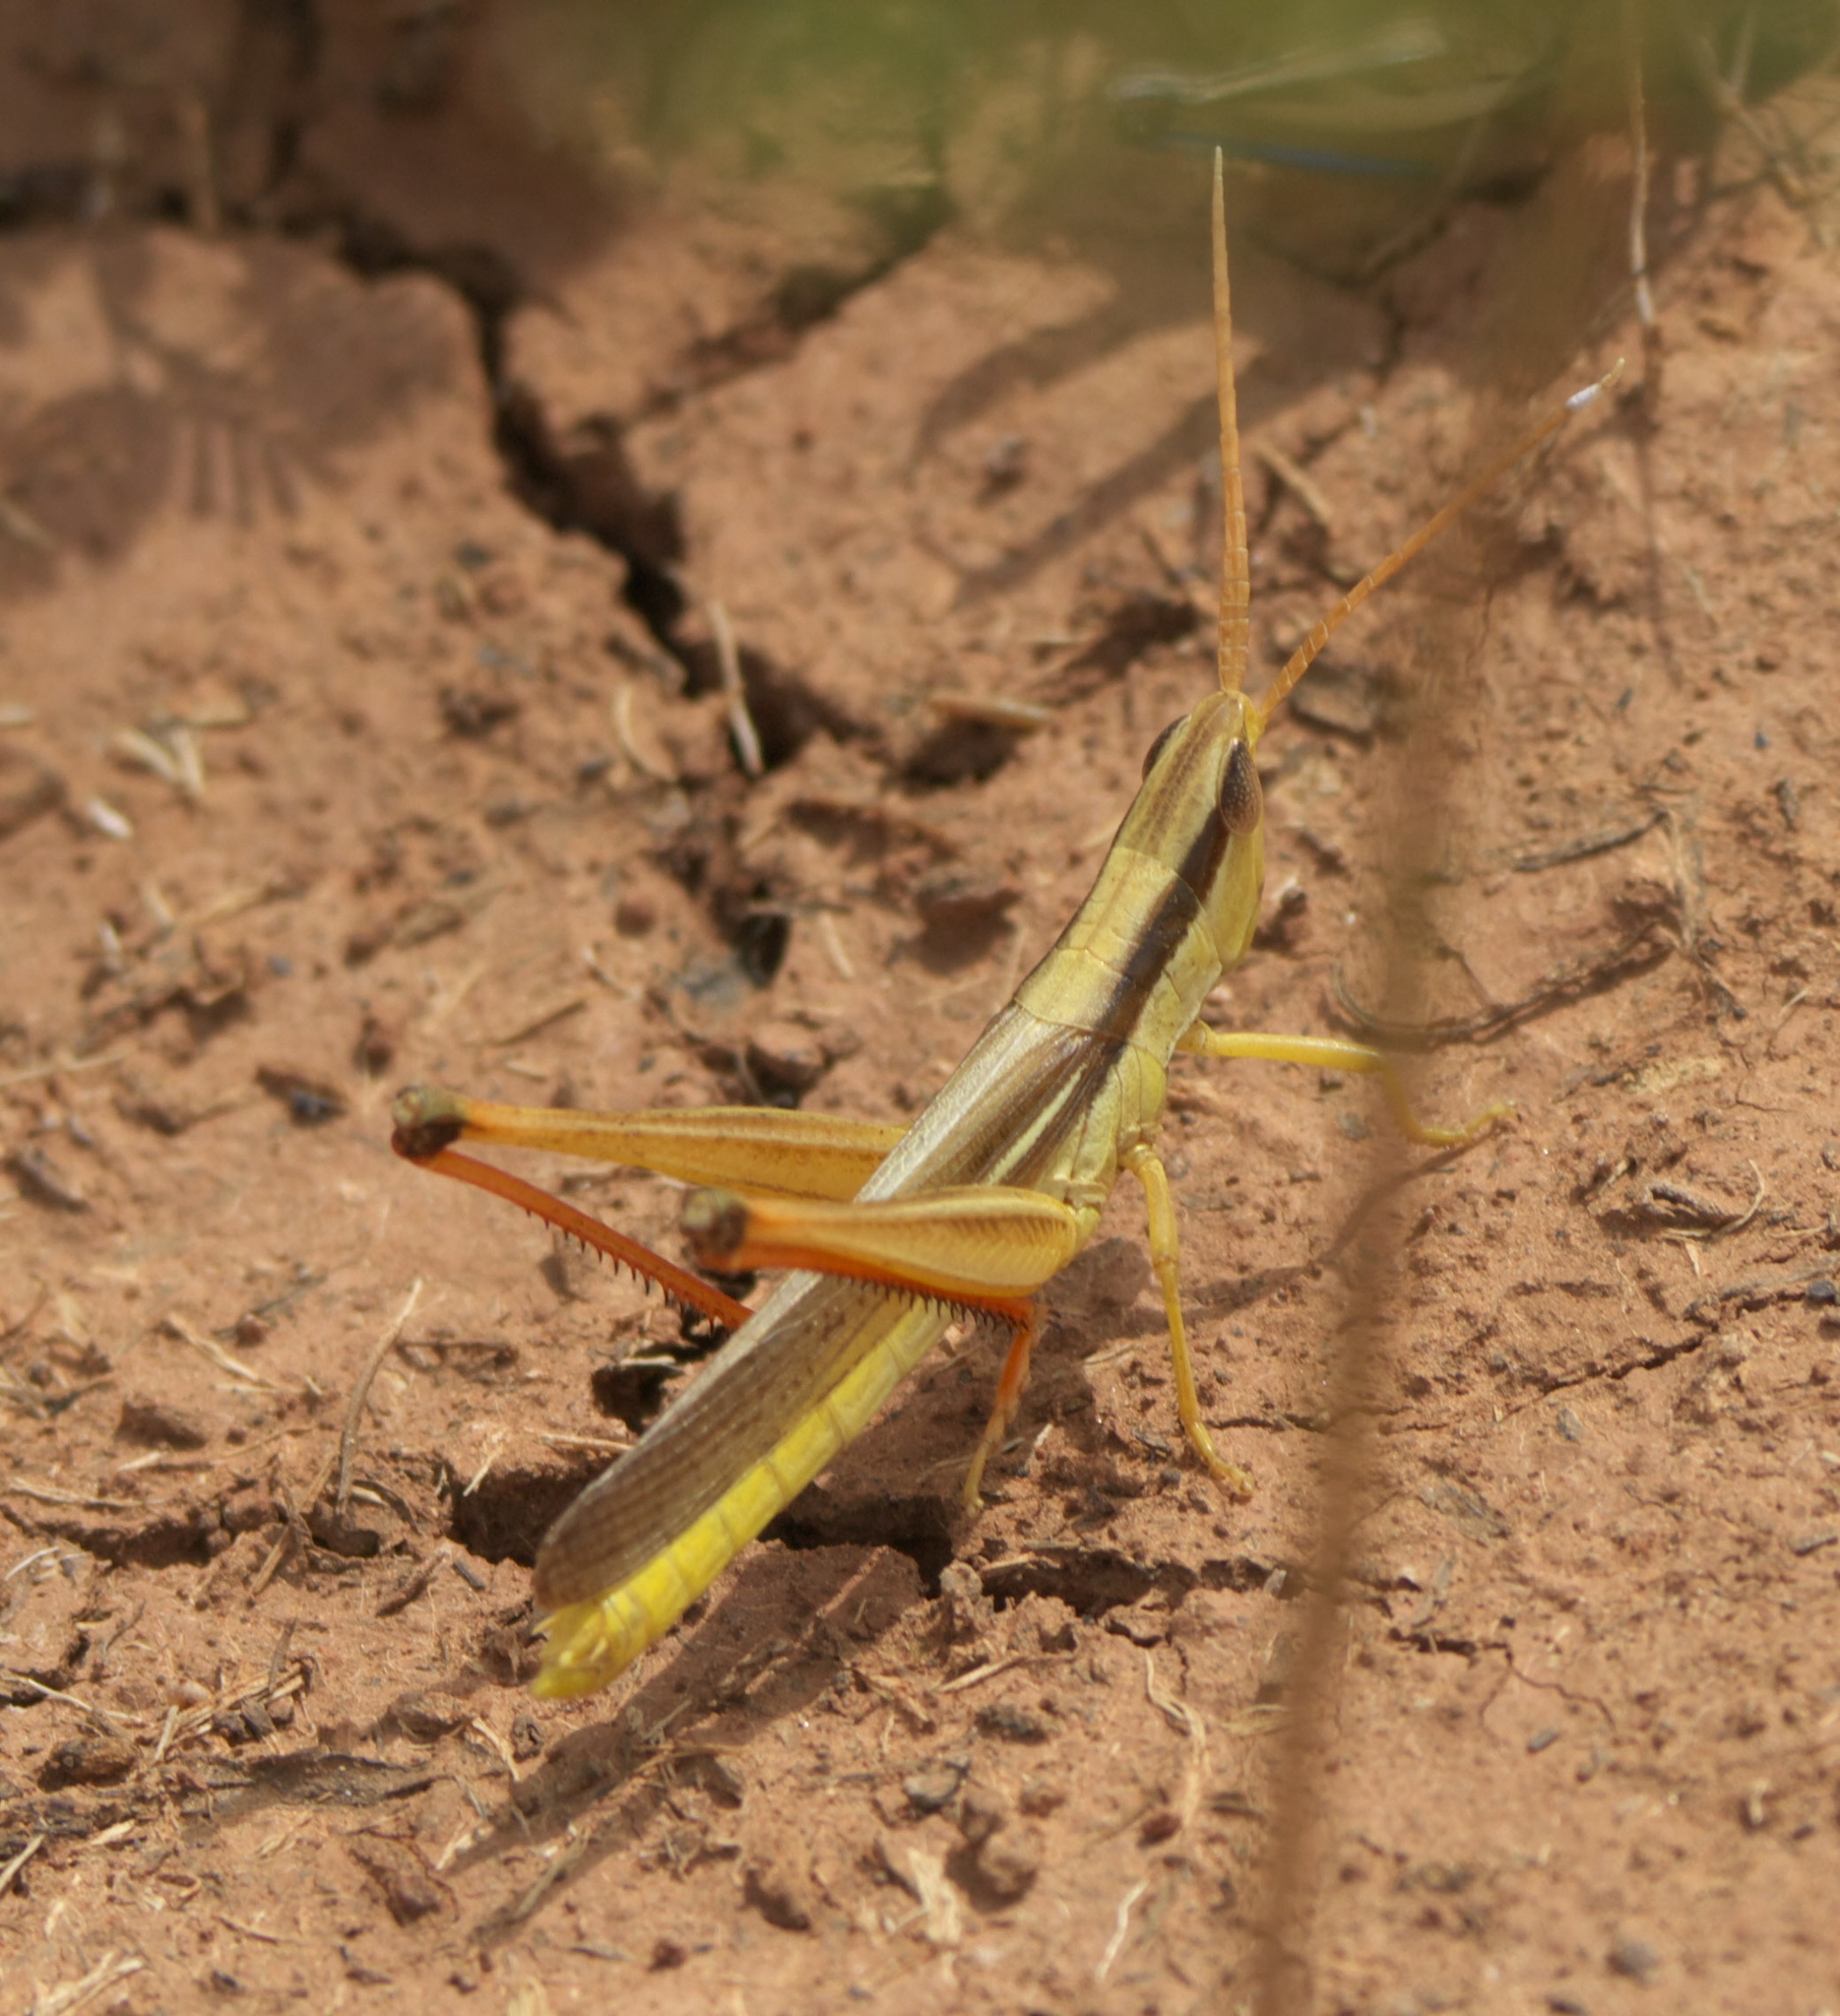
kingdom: Animalia
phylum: Arthropoda
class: Insecta
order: Orthoptera
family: Acrididae
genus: Mermiria
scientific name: Mermiria bivittata
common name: Two-striped mermiria grasshopper
